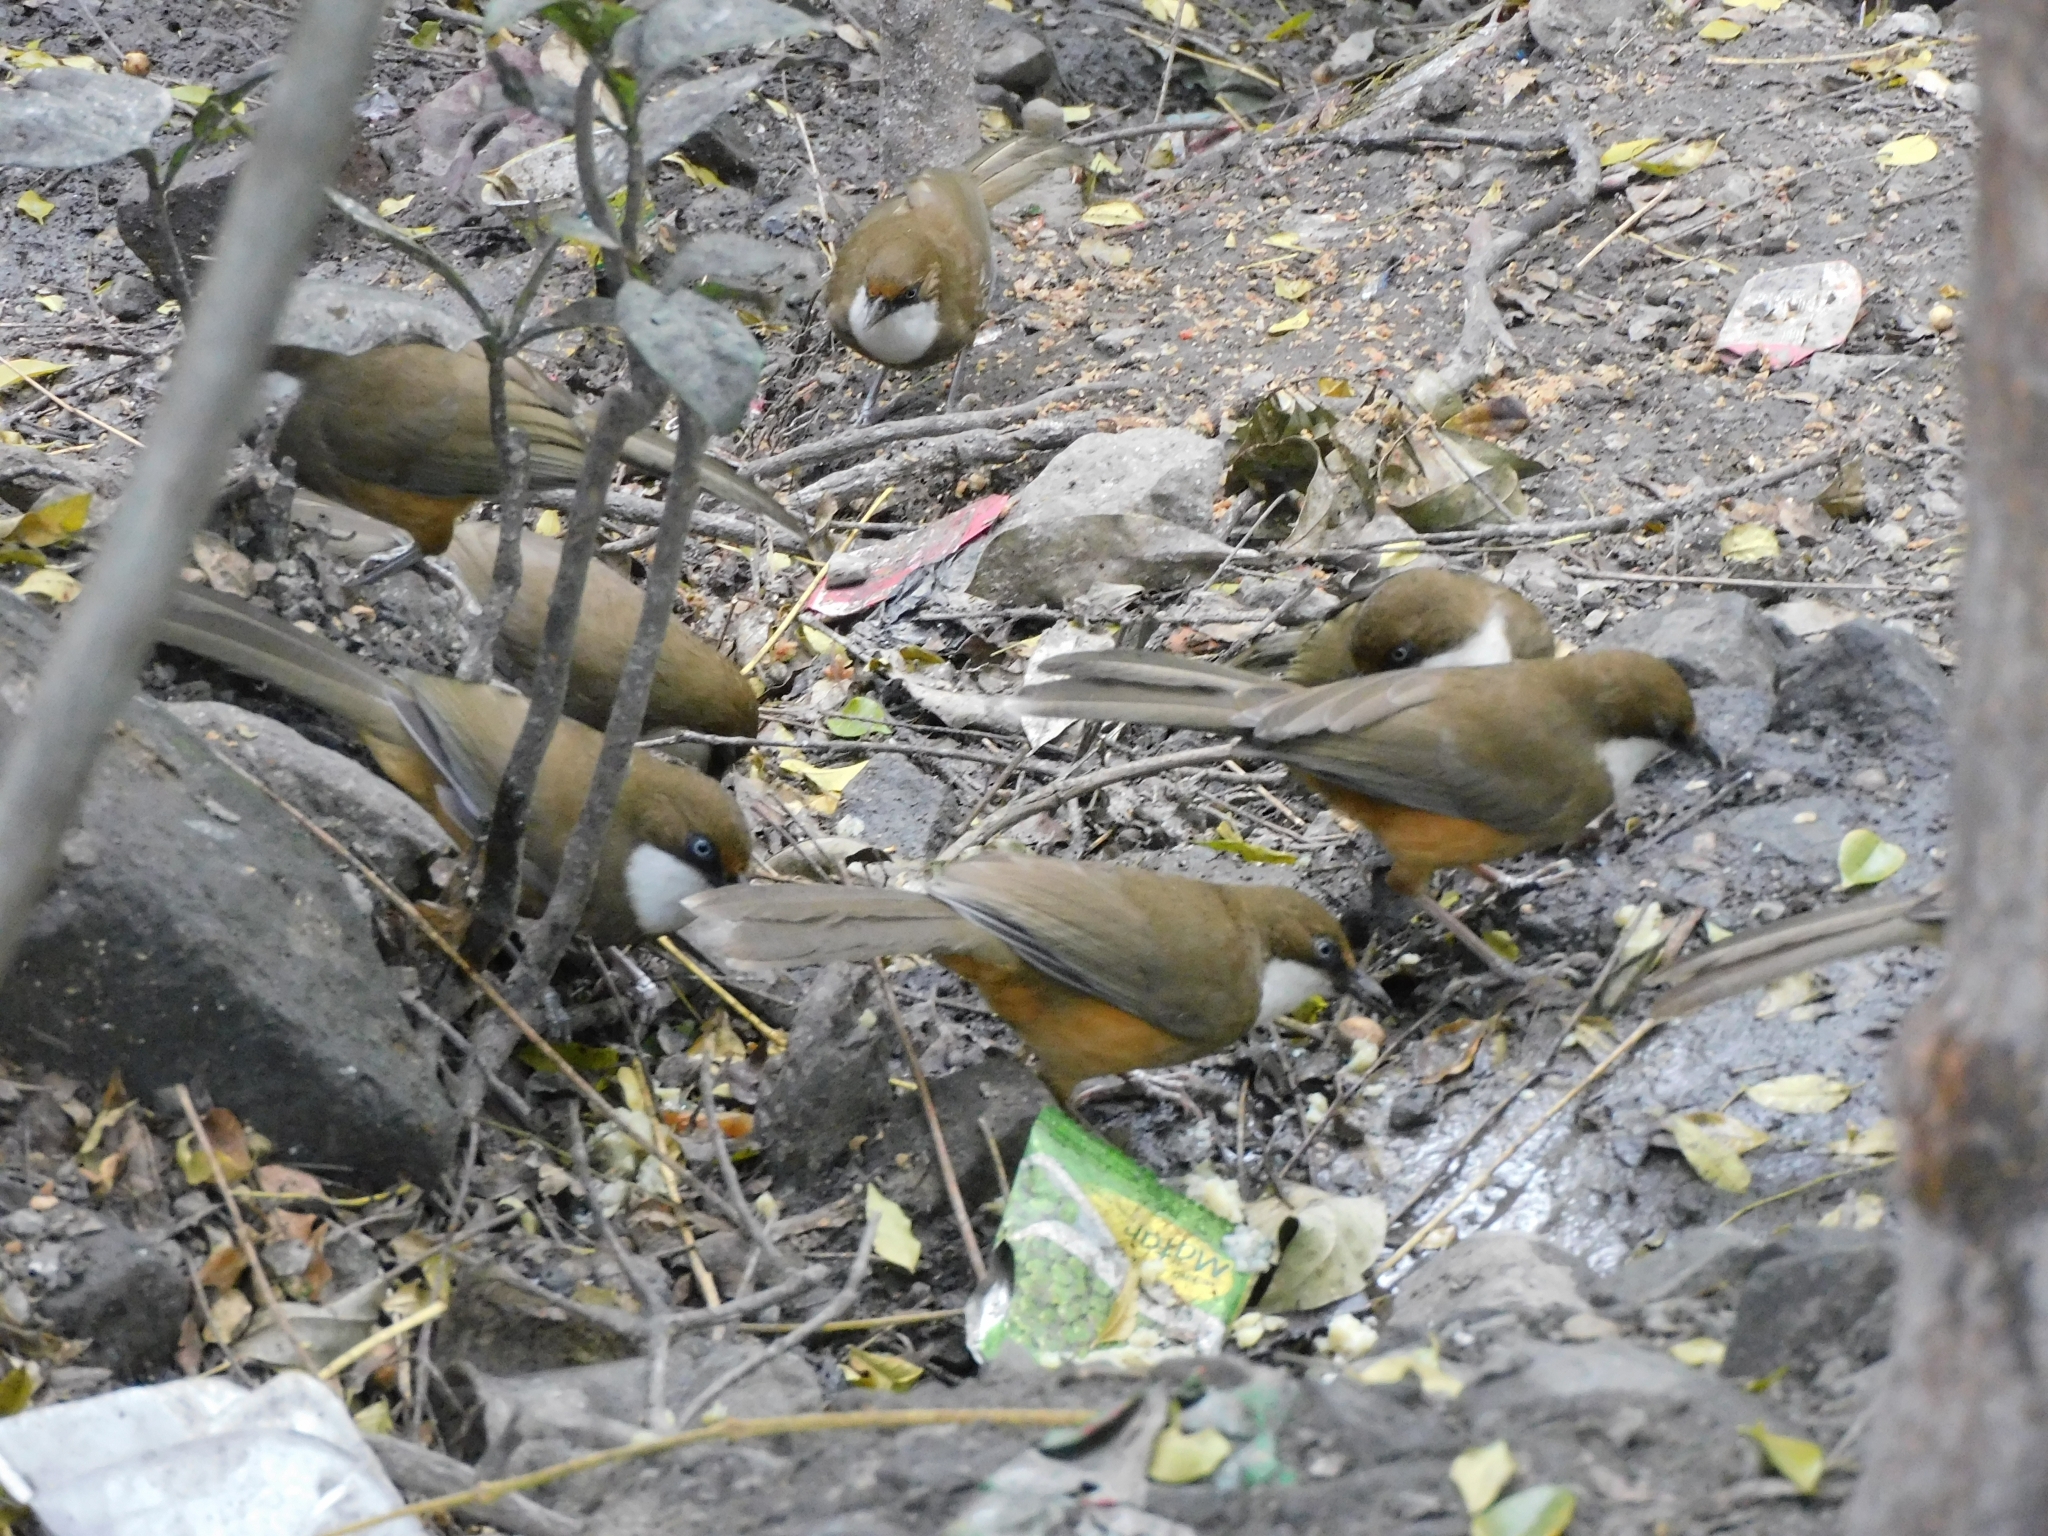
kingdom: Animalia
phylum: Chordata
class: Aves
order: Passeriformes
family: Leiothrichidae
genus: Garrulax
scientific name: Garrulax albogularis
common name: White-throated laughingthrush
